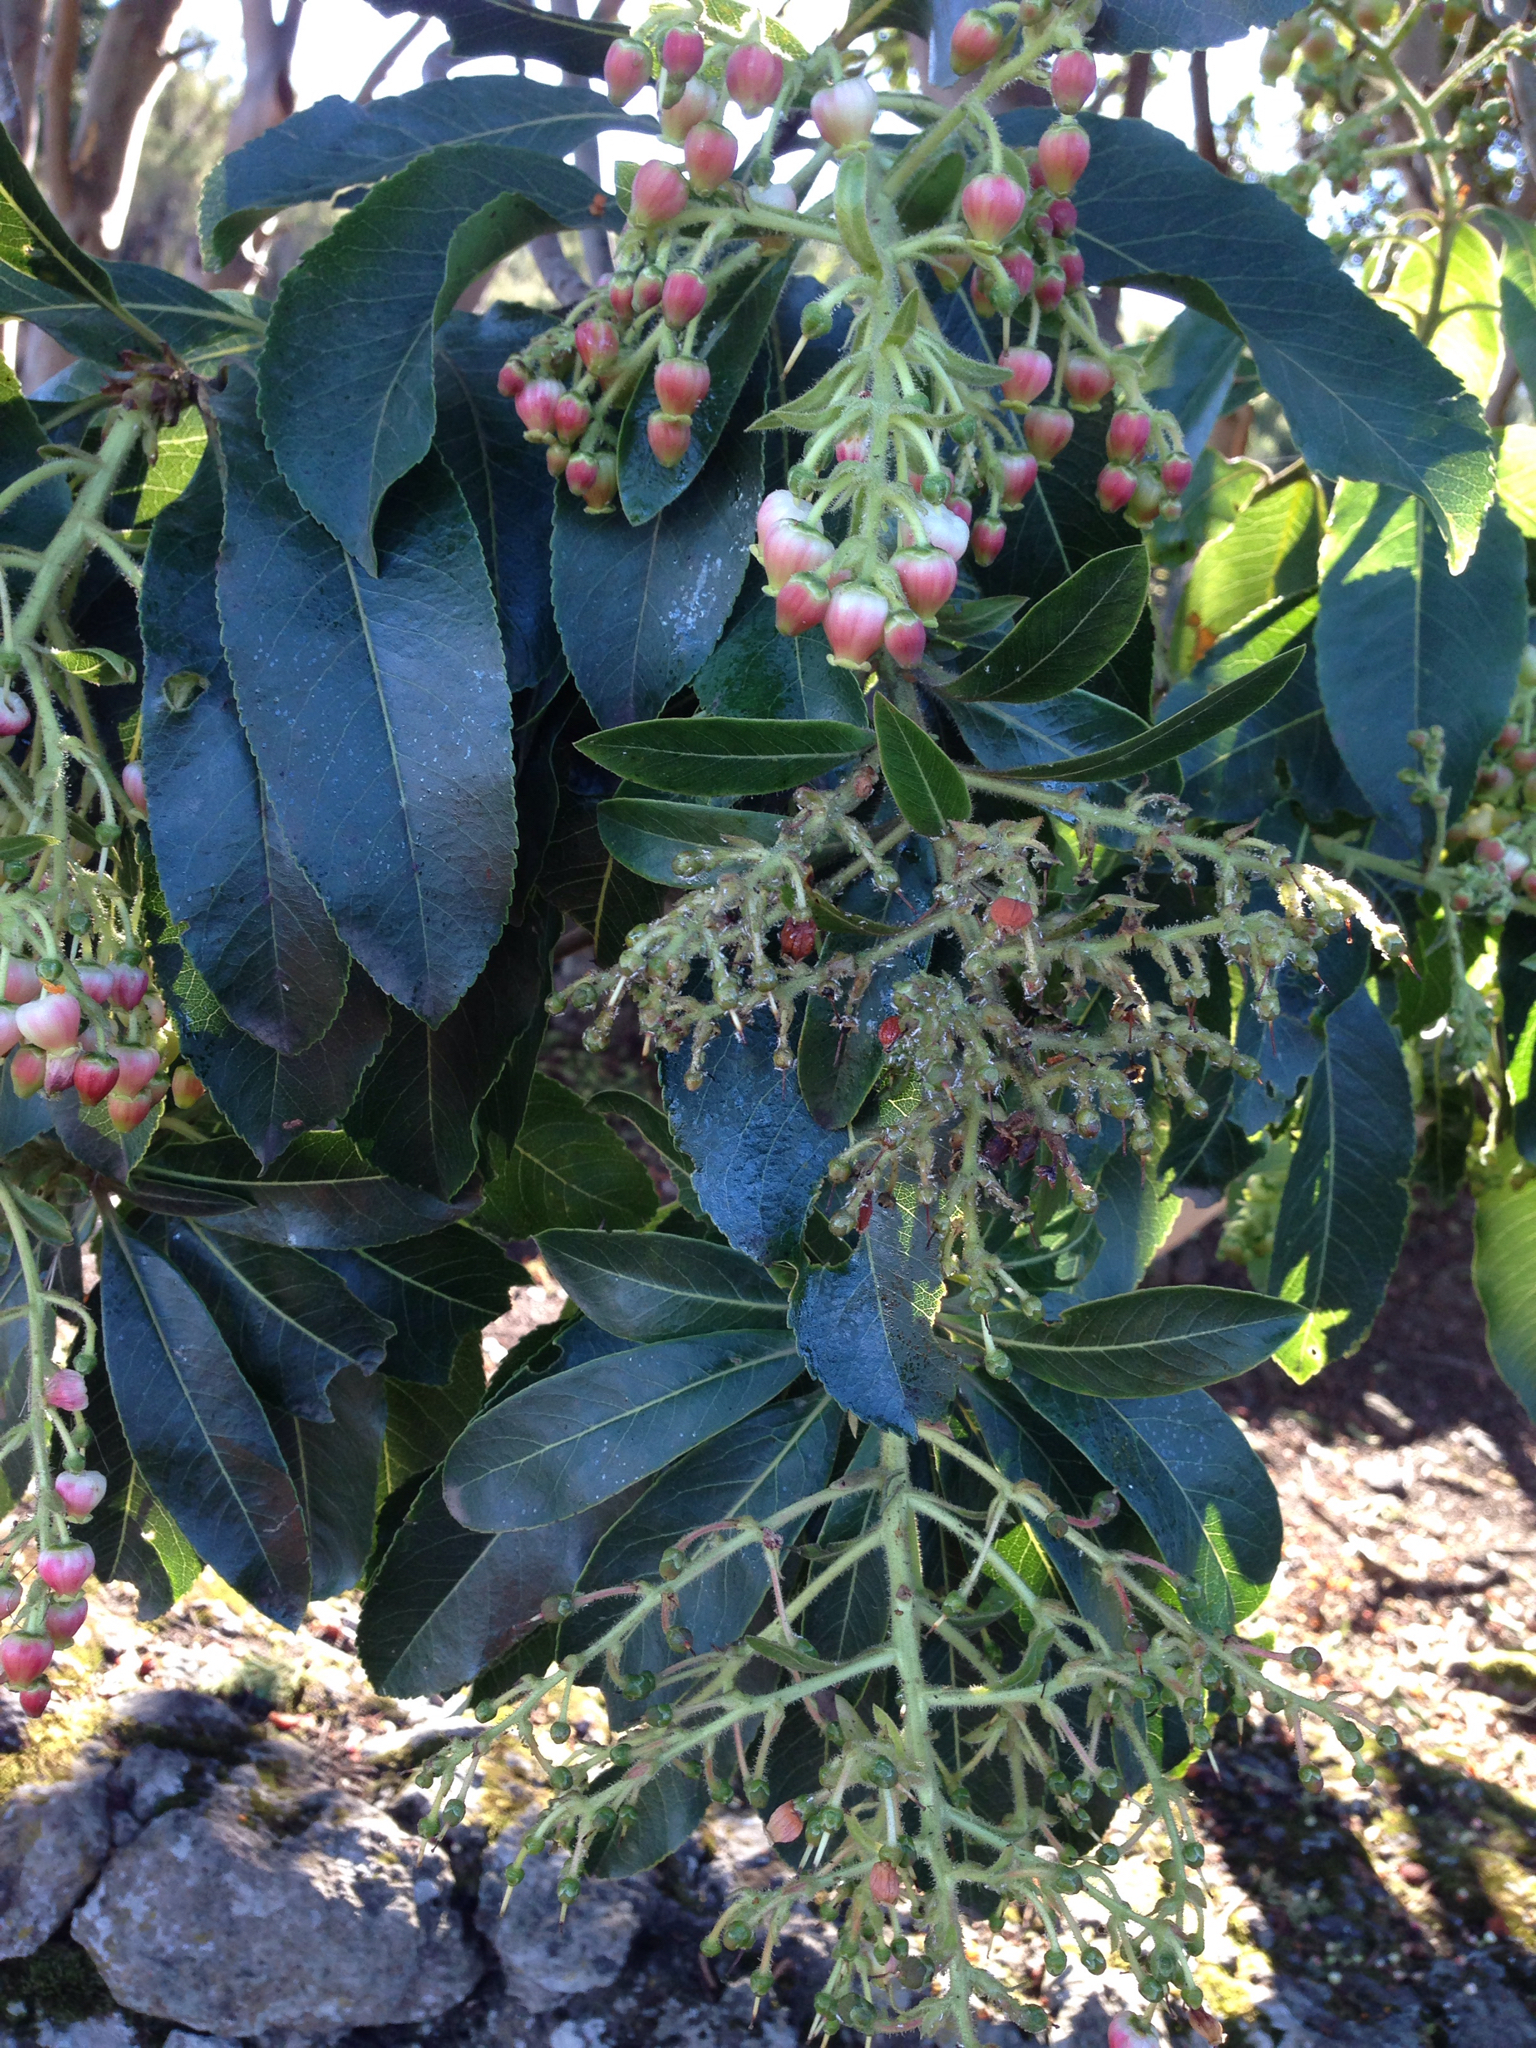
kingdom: Plantae
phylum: Tracheophyta
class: Magnoliopsida
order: Ericales
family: Ericaceae
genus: Arbutus
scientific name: Arbutus canariensis
